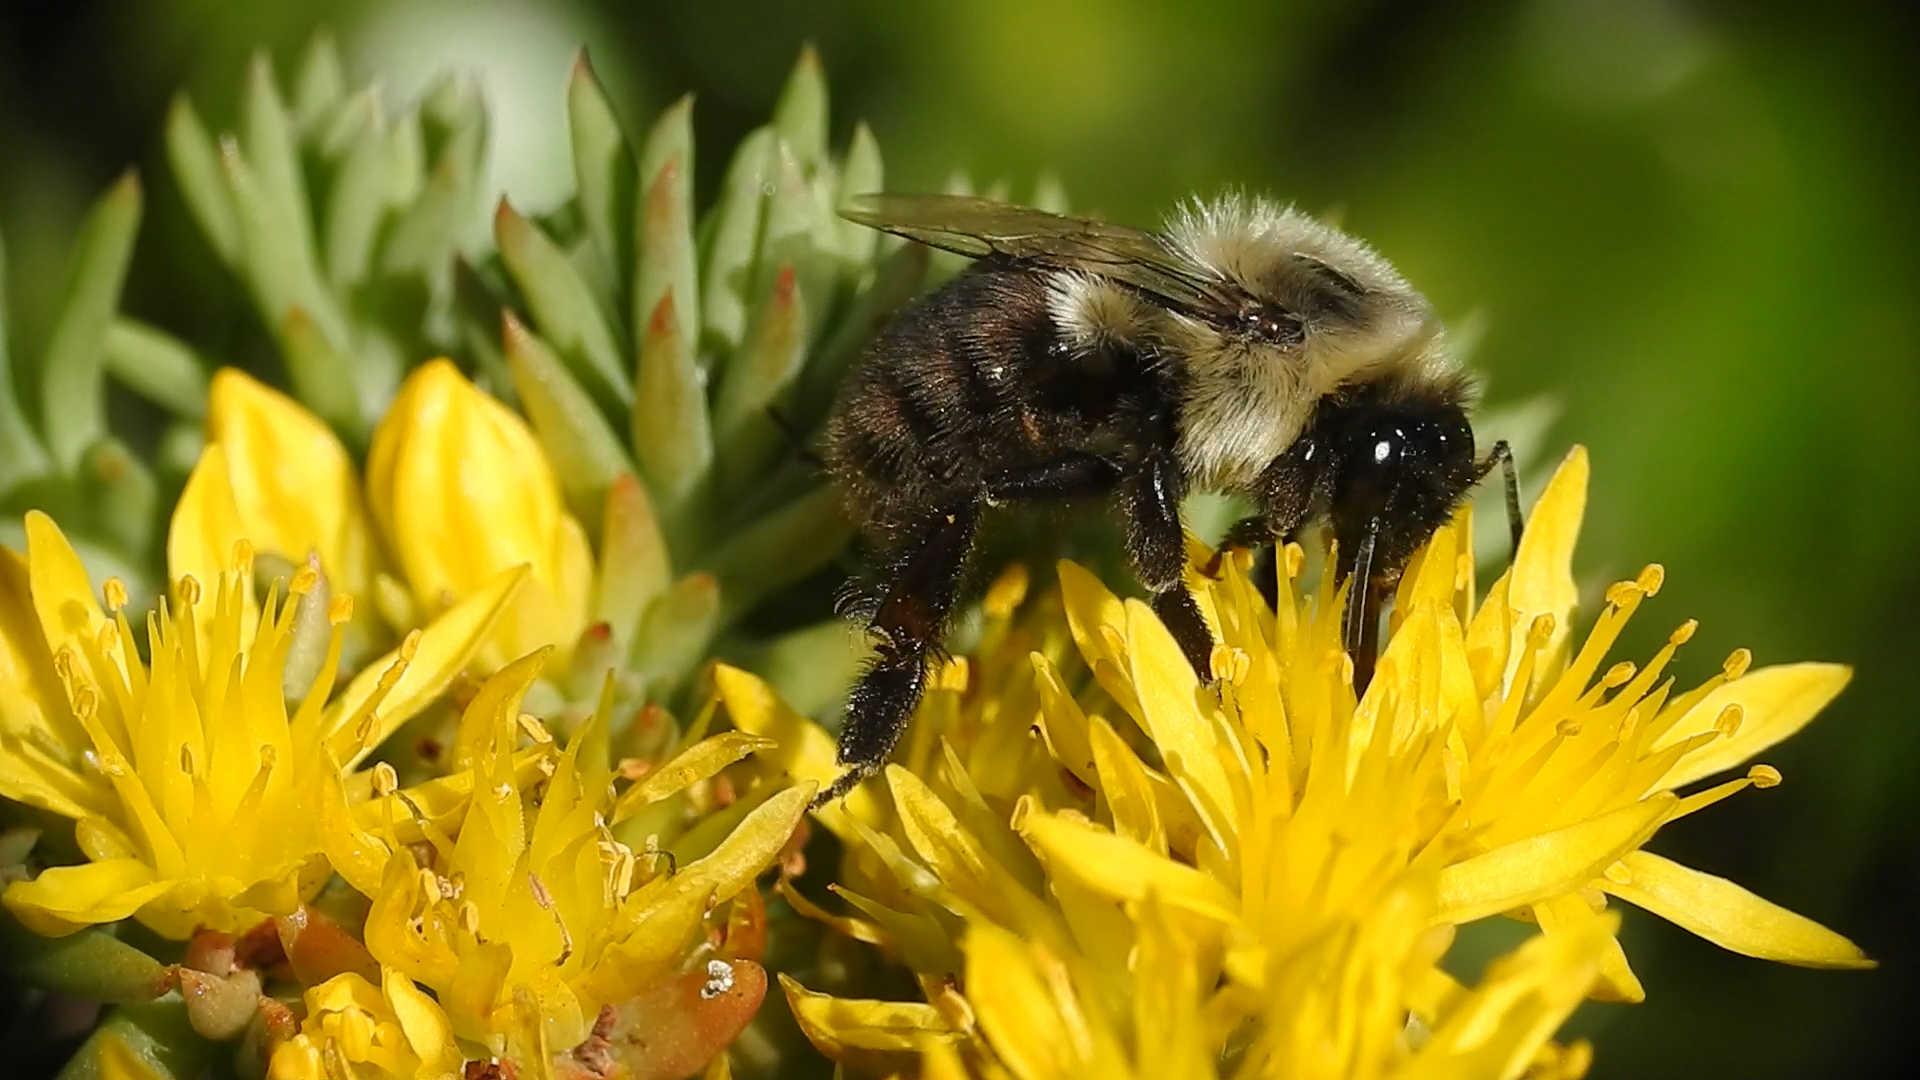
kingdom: Animalia
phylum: Arthropoda
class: Insecta
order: Hymenoptera
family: Apidae
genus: Bombus
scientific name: Bombus impatiens
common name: Common eastern bumble bee
